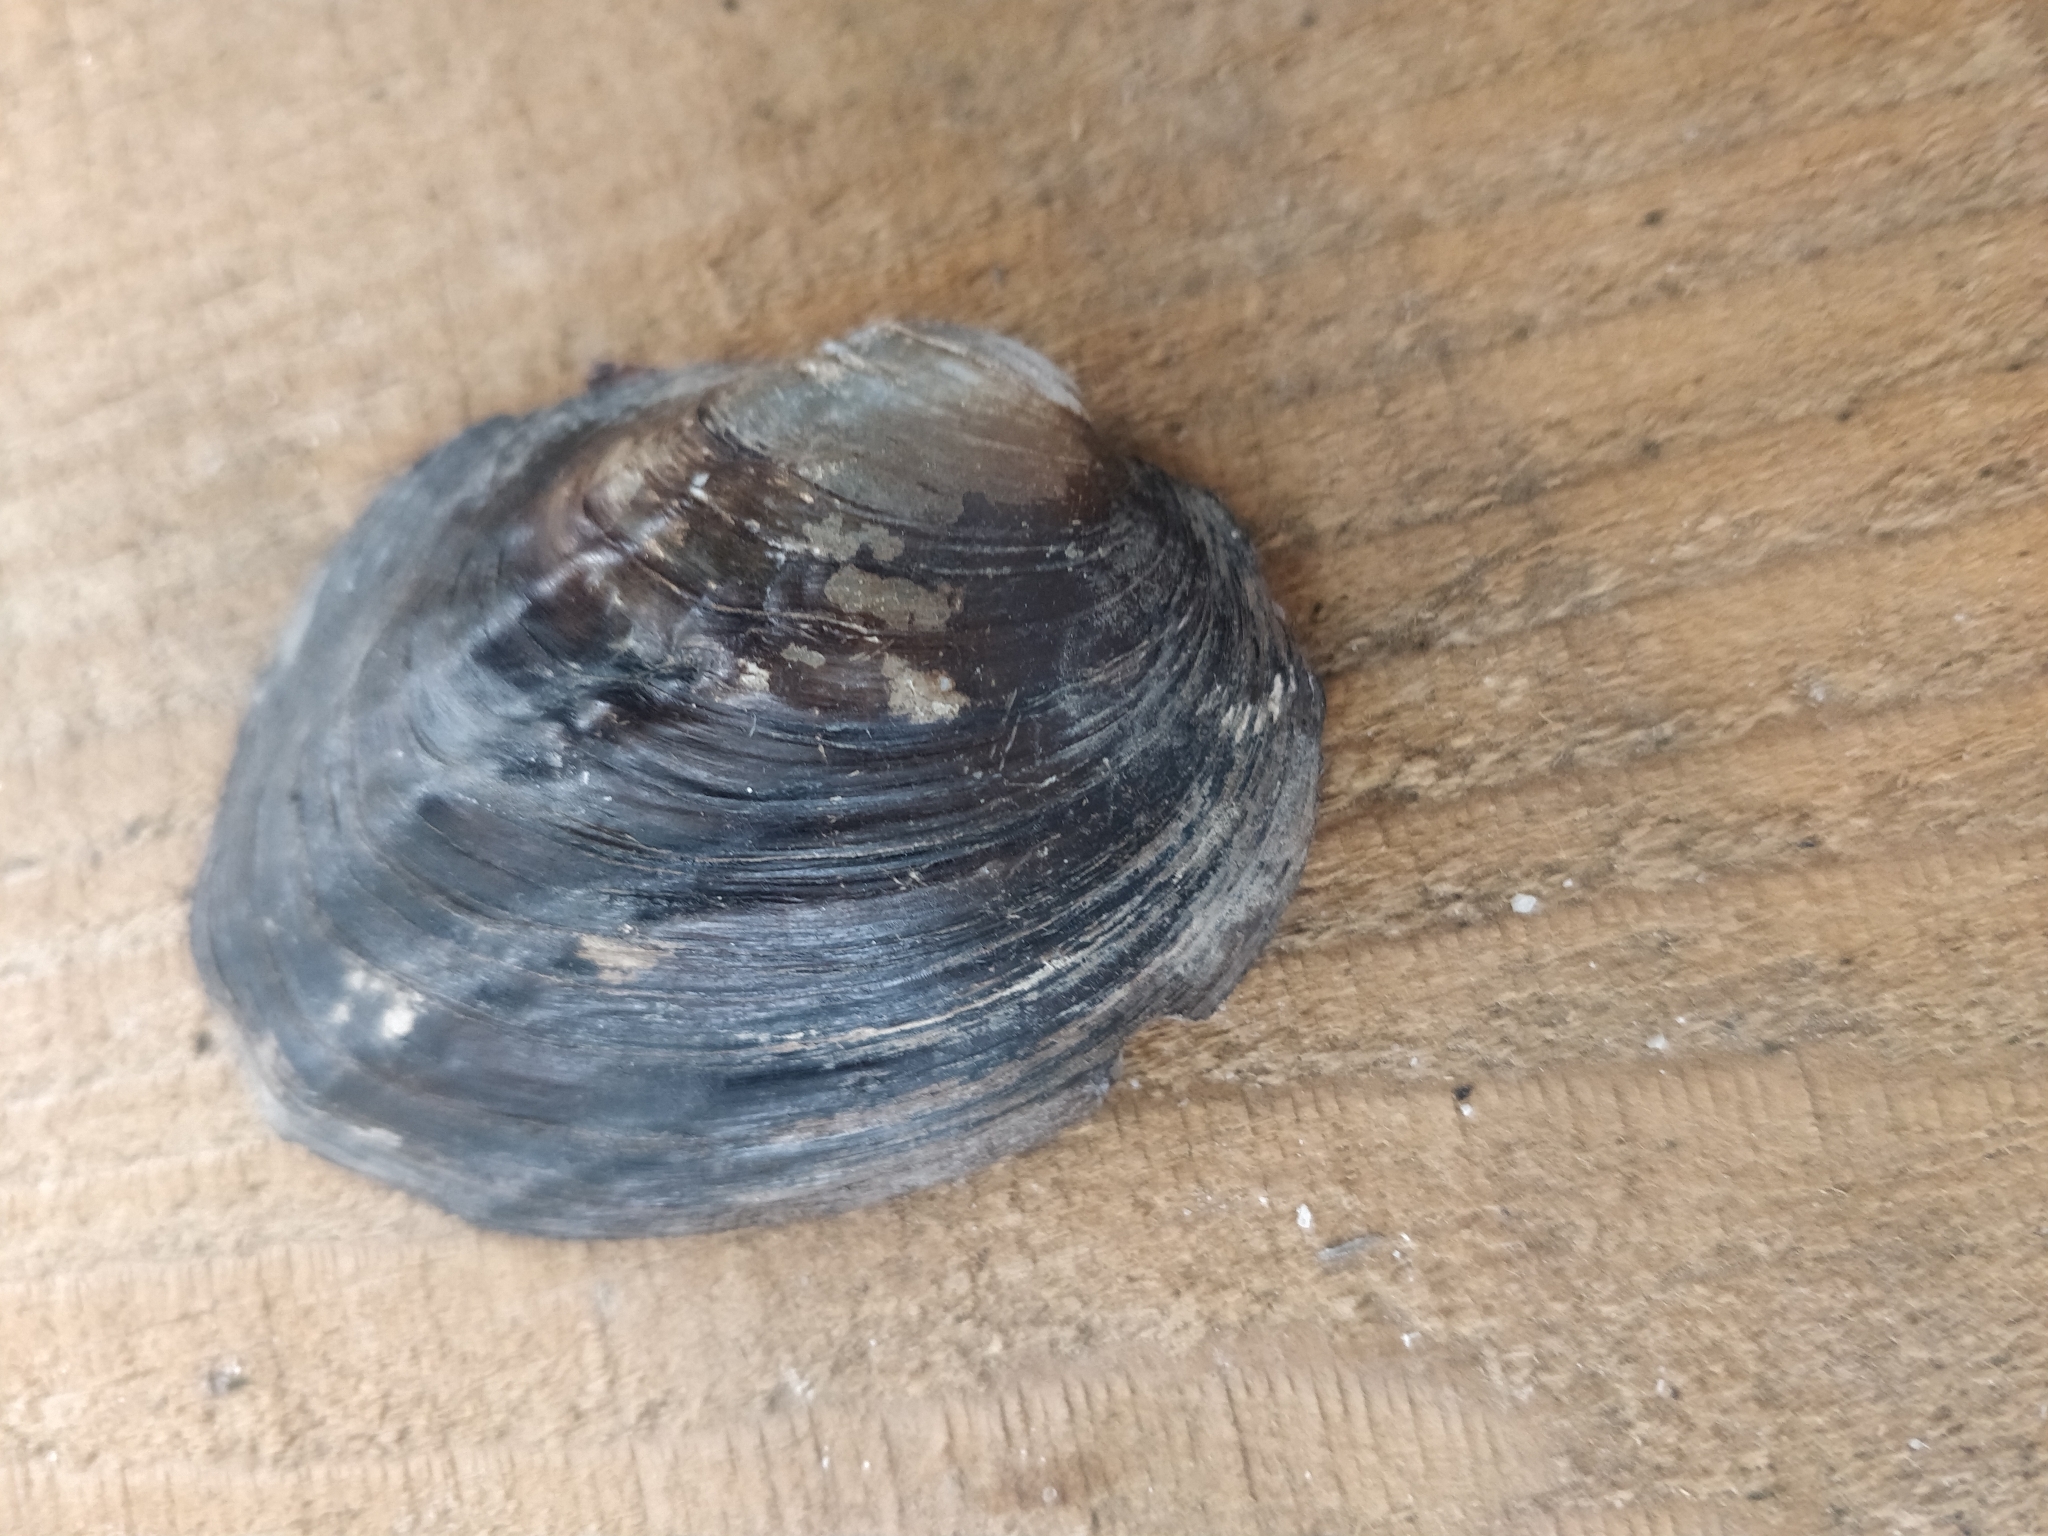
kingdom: Animalia
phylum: Mollusca
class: Bivalvia
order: Unionida
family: Unionidae
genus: Amblema
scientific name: Amblema plicata
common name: Threeridge
